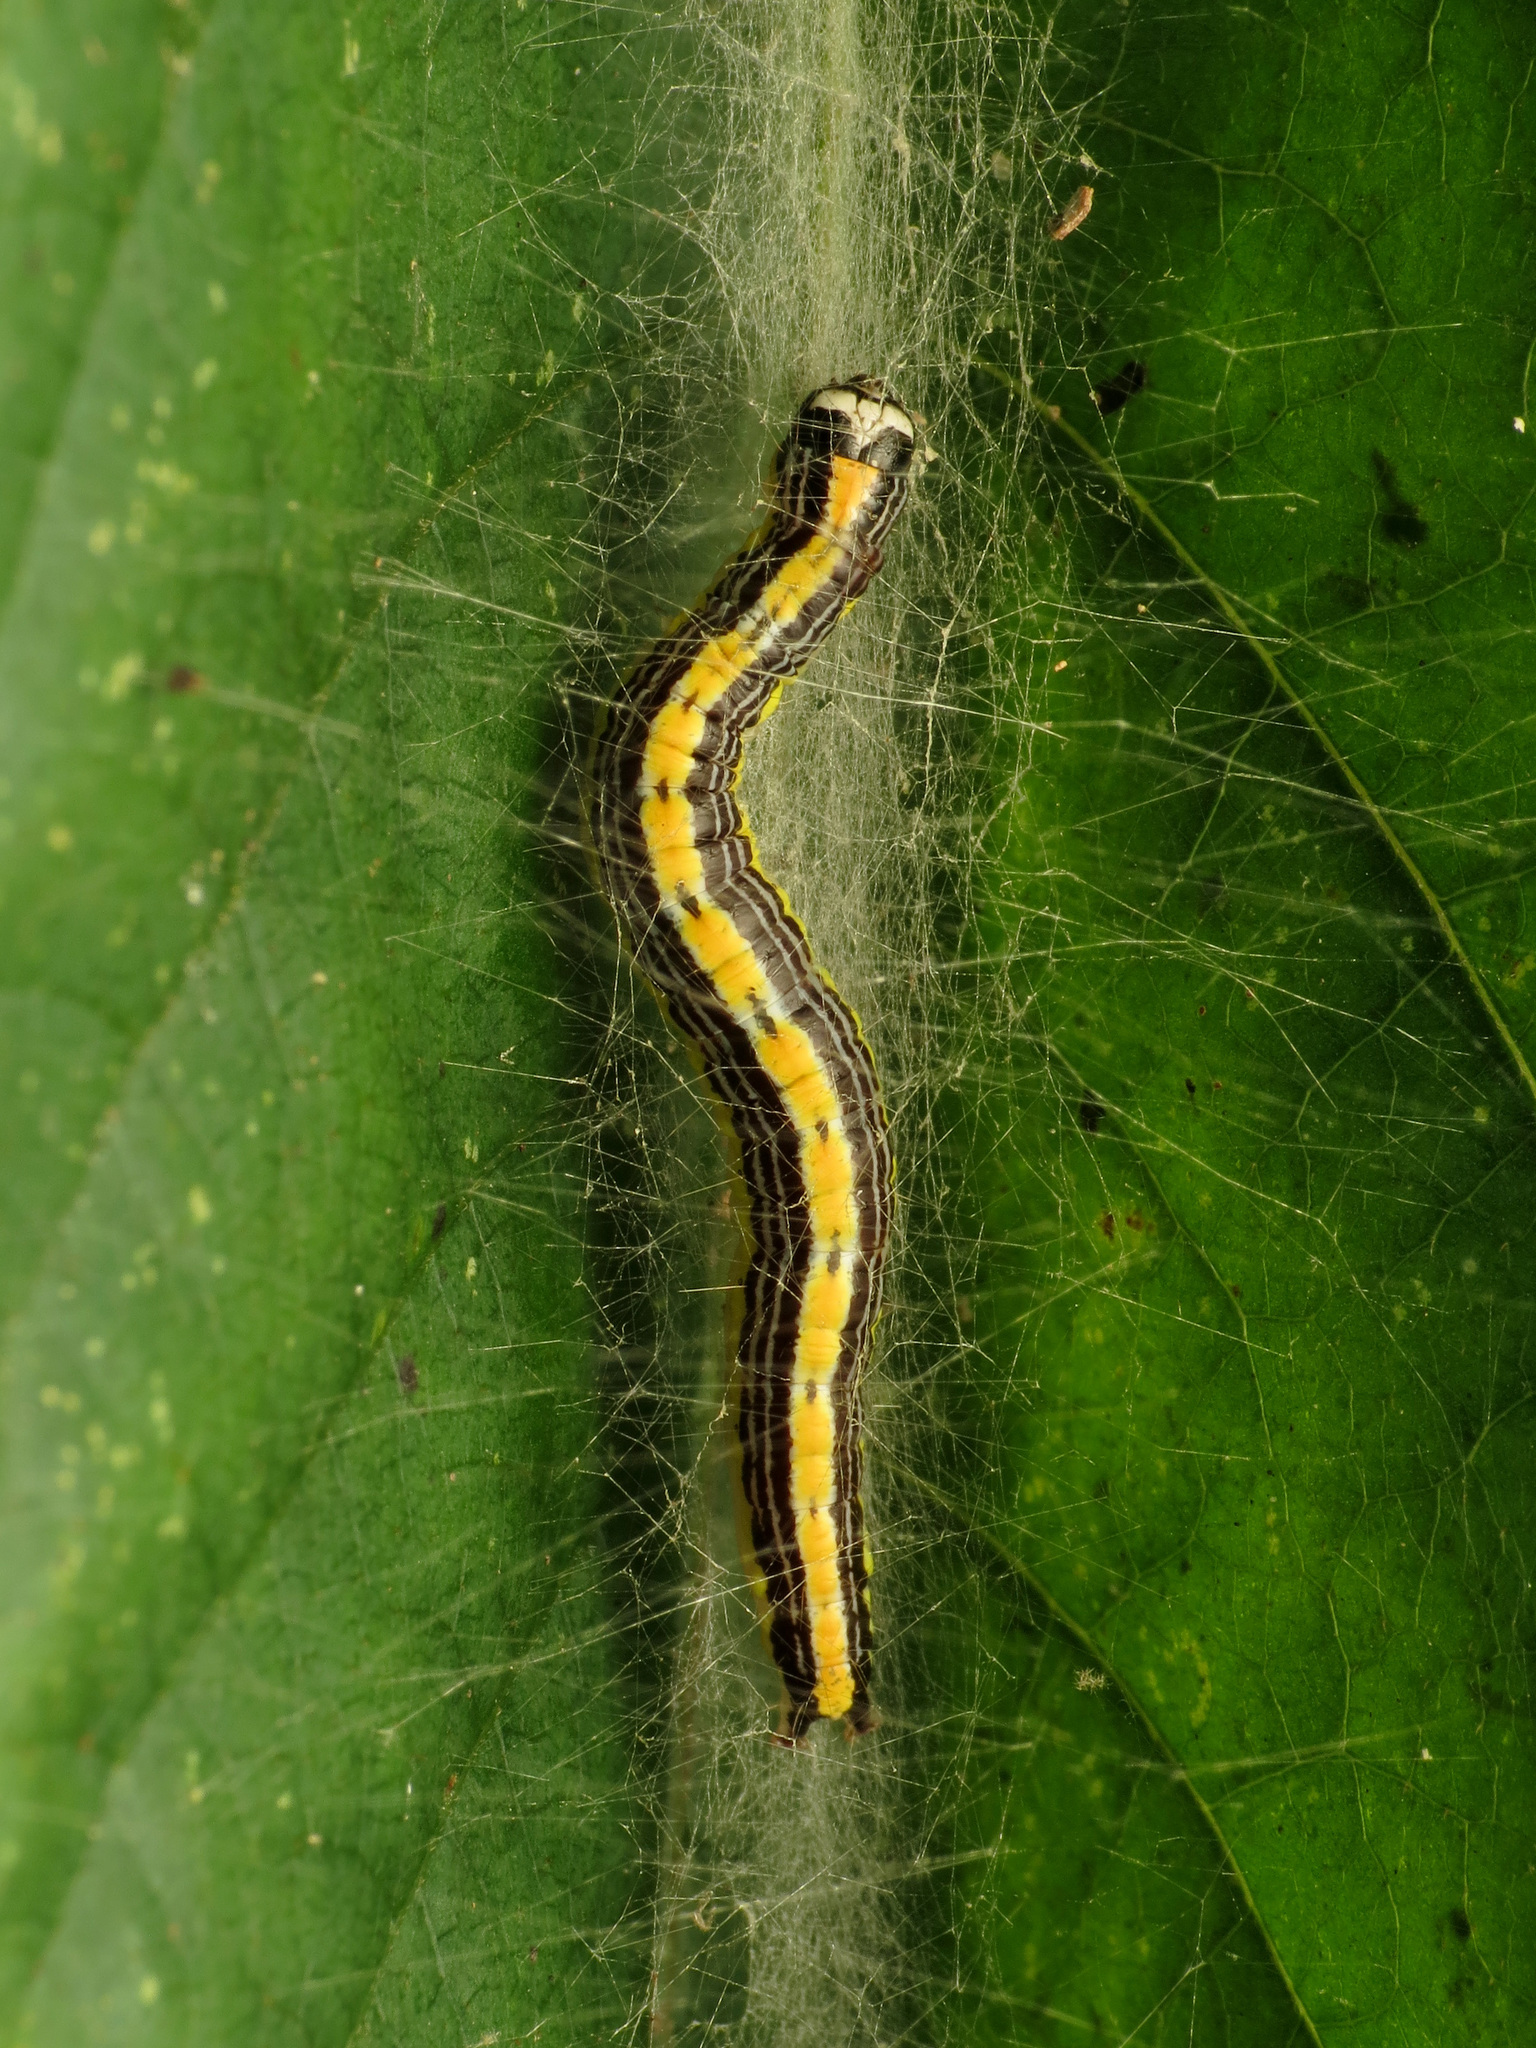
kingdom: Animalia
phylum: Arthropoda
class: Insecta
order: Lepidoptera
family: Pyralidae
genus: Epipaschia
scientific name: Epipaschia superatalis
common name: Dimorphic macalla moth
